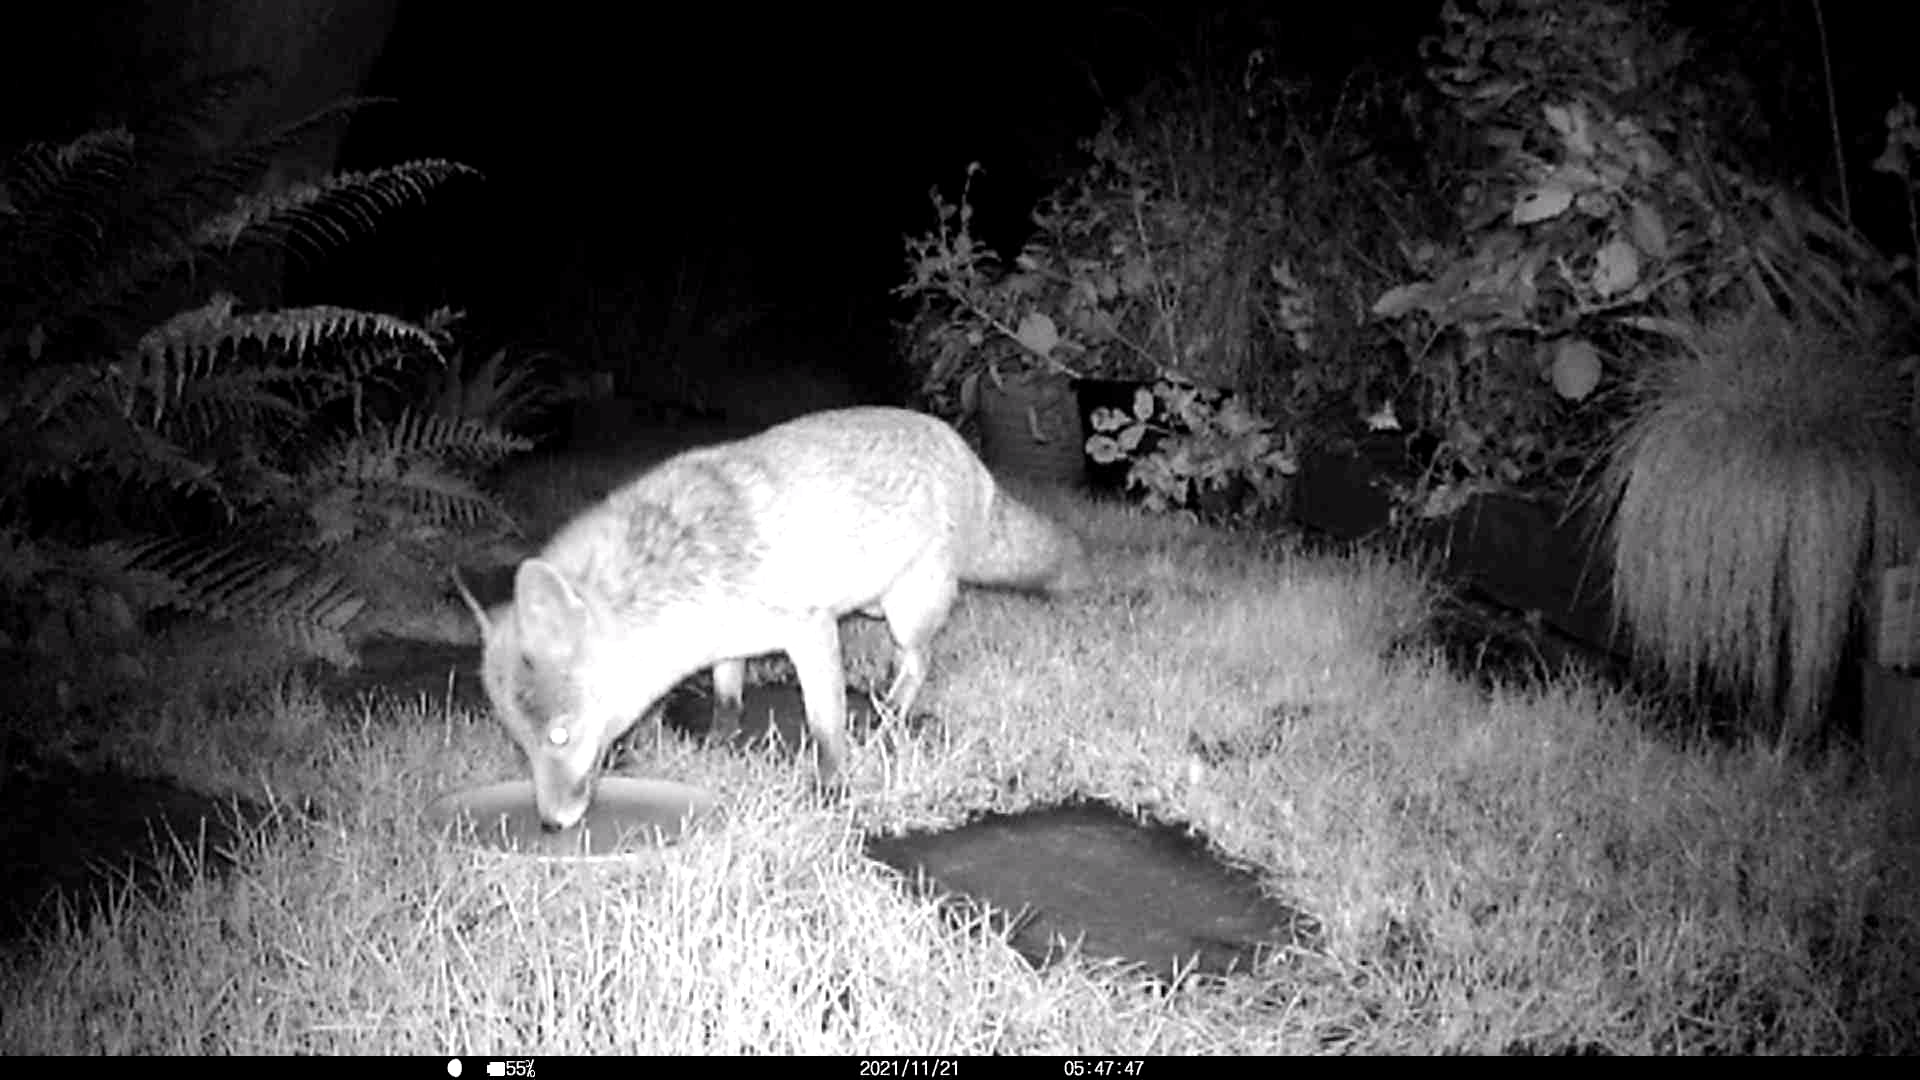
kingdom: Animalia
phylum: Chordata
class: Mammalia
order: Carnivora
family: Canidae
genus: Vulpes
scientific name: Vulpes vulpes
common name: Red fox
